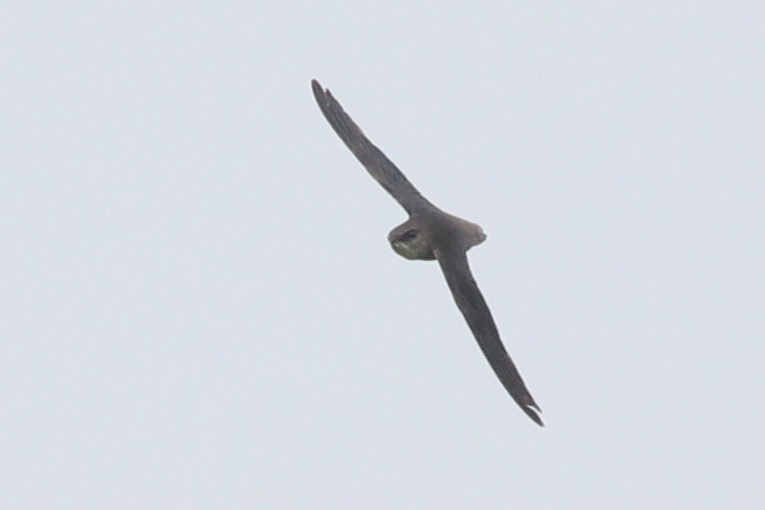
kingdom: Animalia
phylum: Chordata
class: Aves
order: Apodiformes
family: Apodidae
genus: Chaetura
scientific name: Chaetura pelagica
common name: Chimney swift
